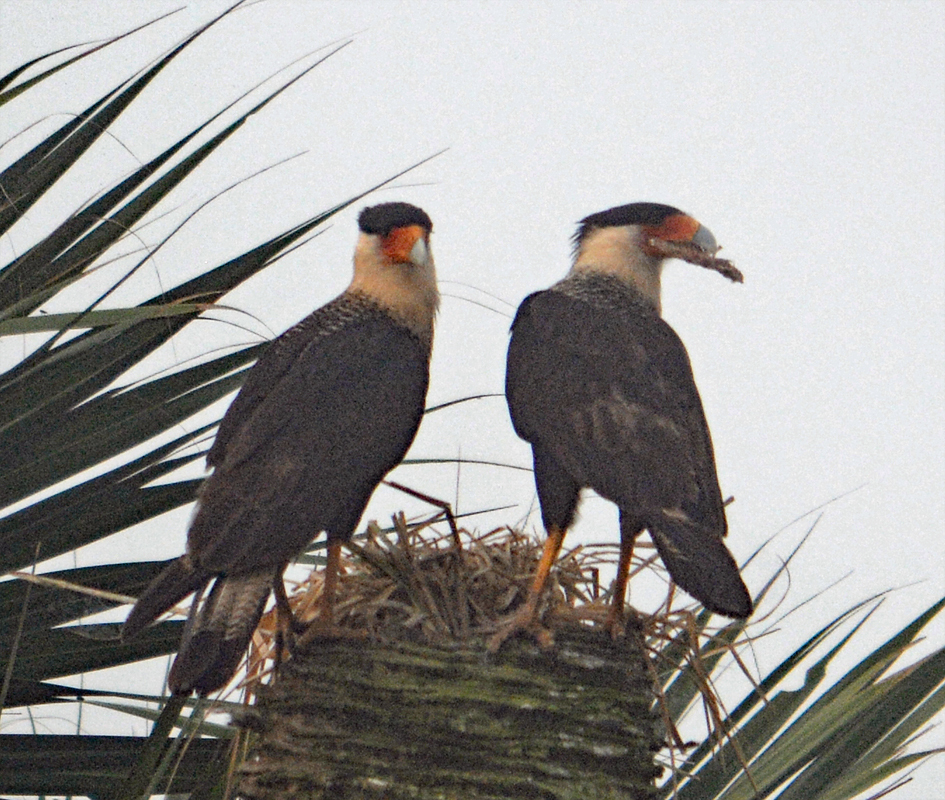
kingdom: Animalia
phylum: Chordata
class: Aves
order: Falconiformes
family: Falconidae
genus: Caracara
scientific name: Caracara plancus
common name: Southern caracara
